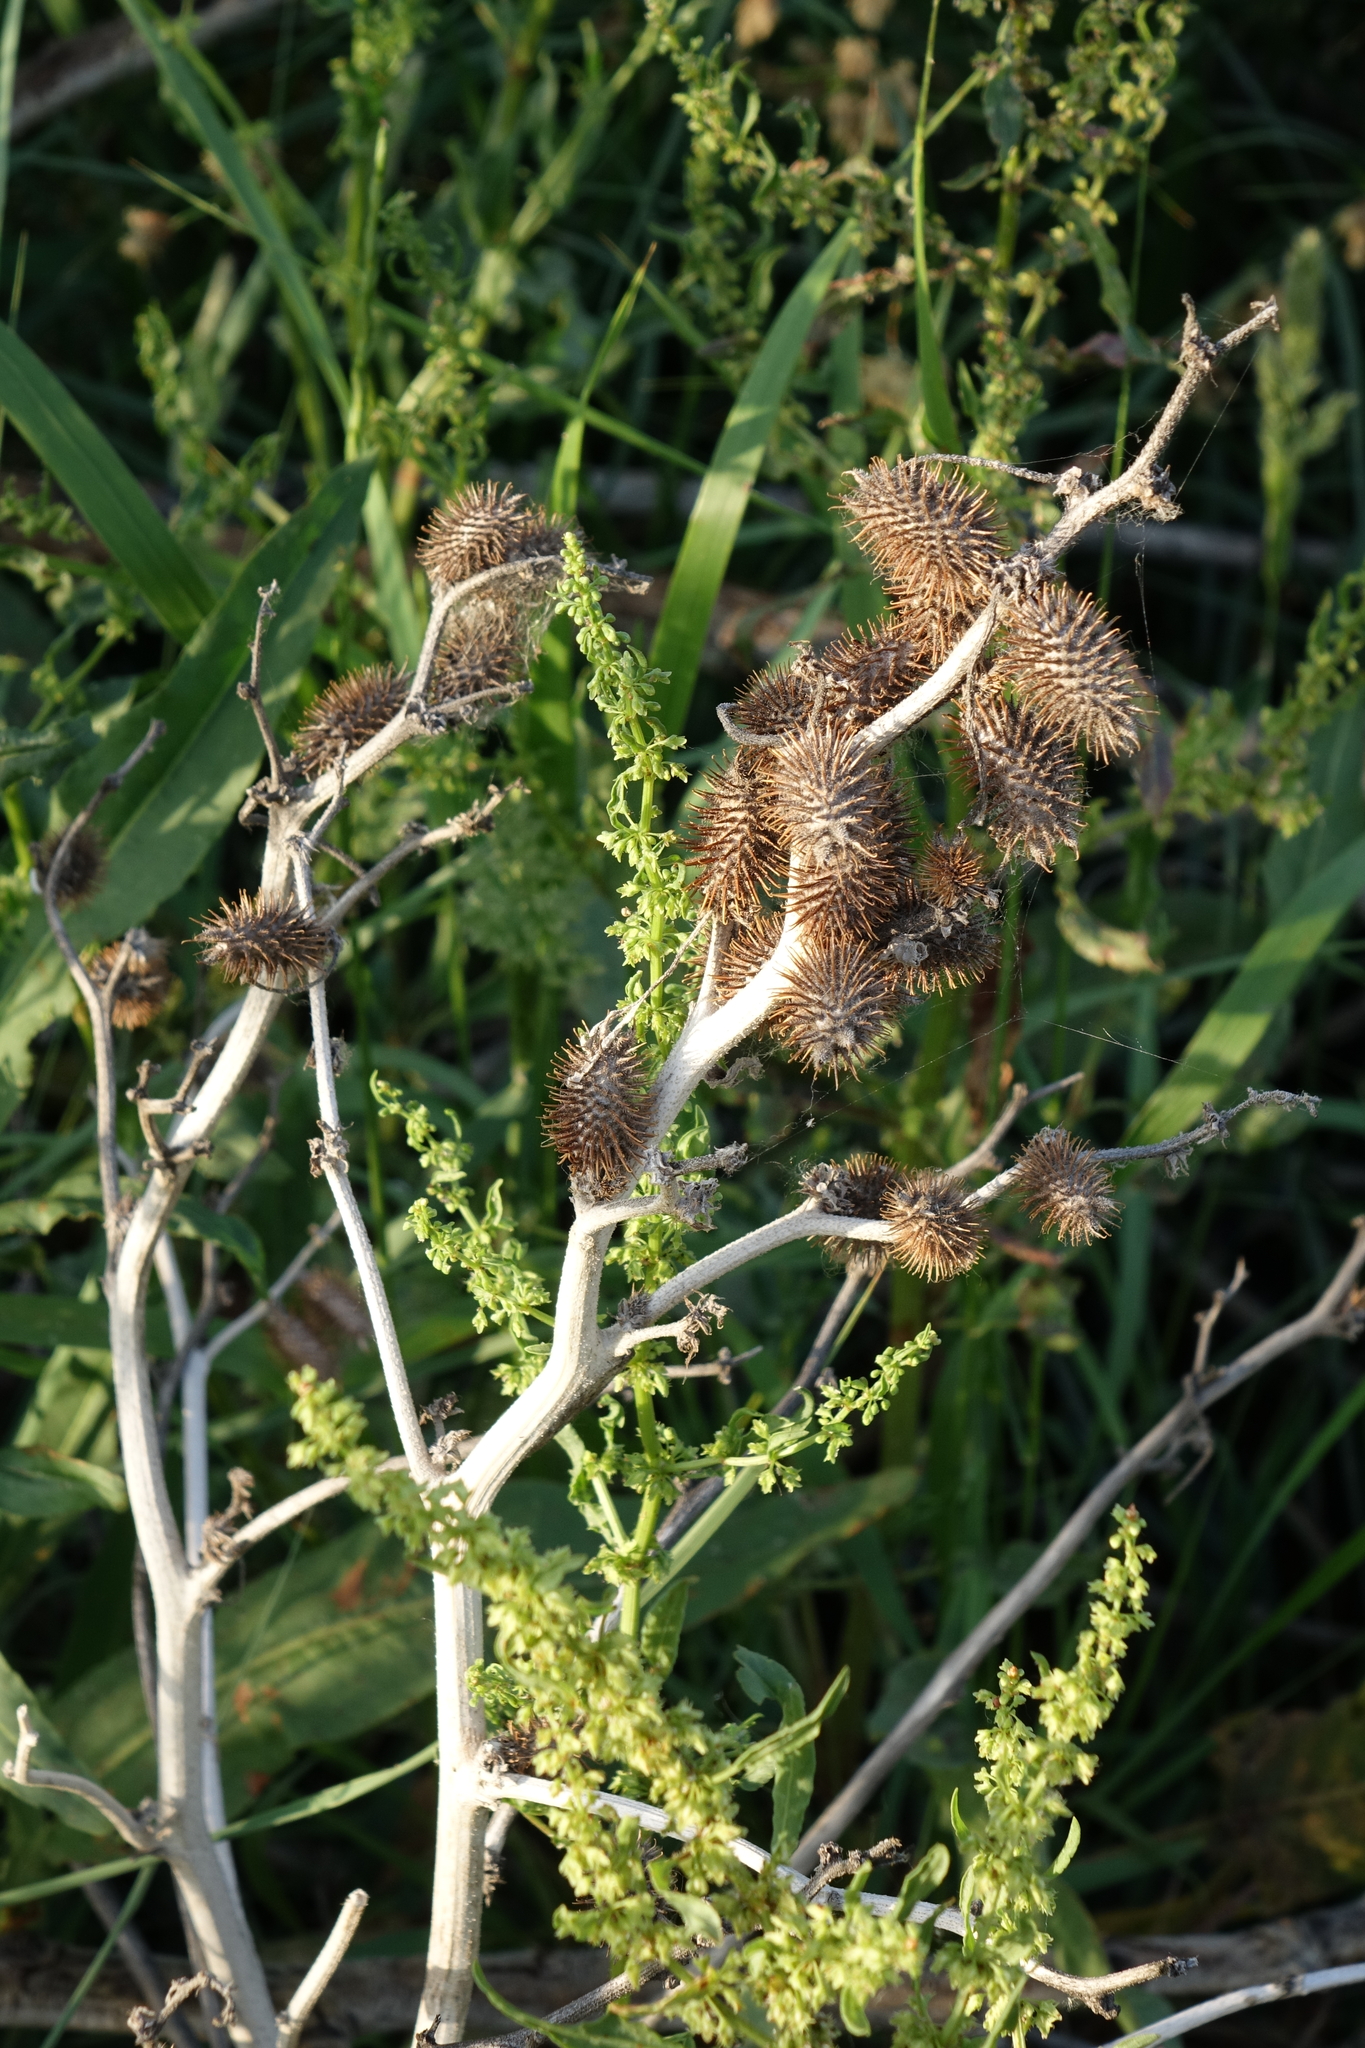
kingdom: Plantae
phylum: Tracheophyta
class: Magnoliopsida
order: Asterales
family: Asteraceae
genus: Xanthium
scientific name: Xanthium orientale
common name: Californian burr
